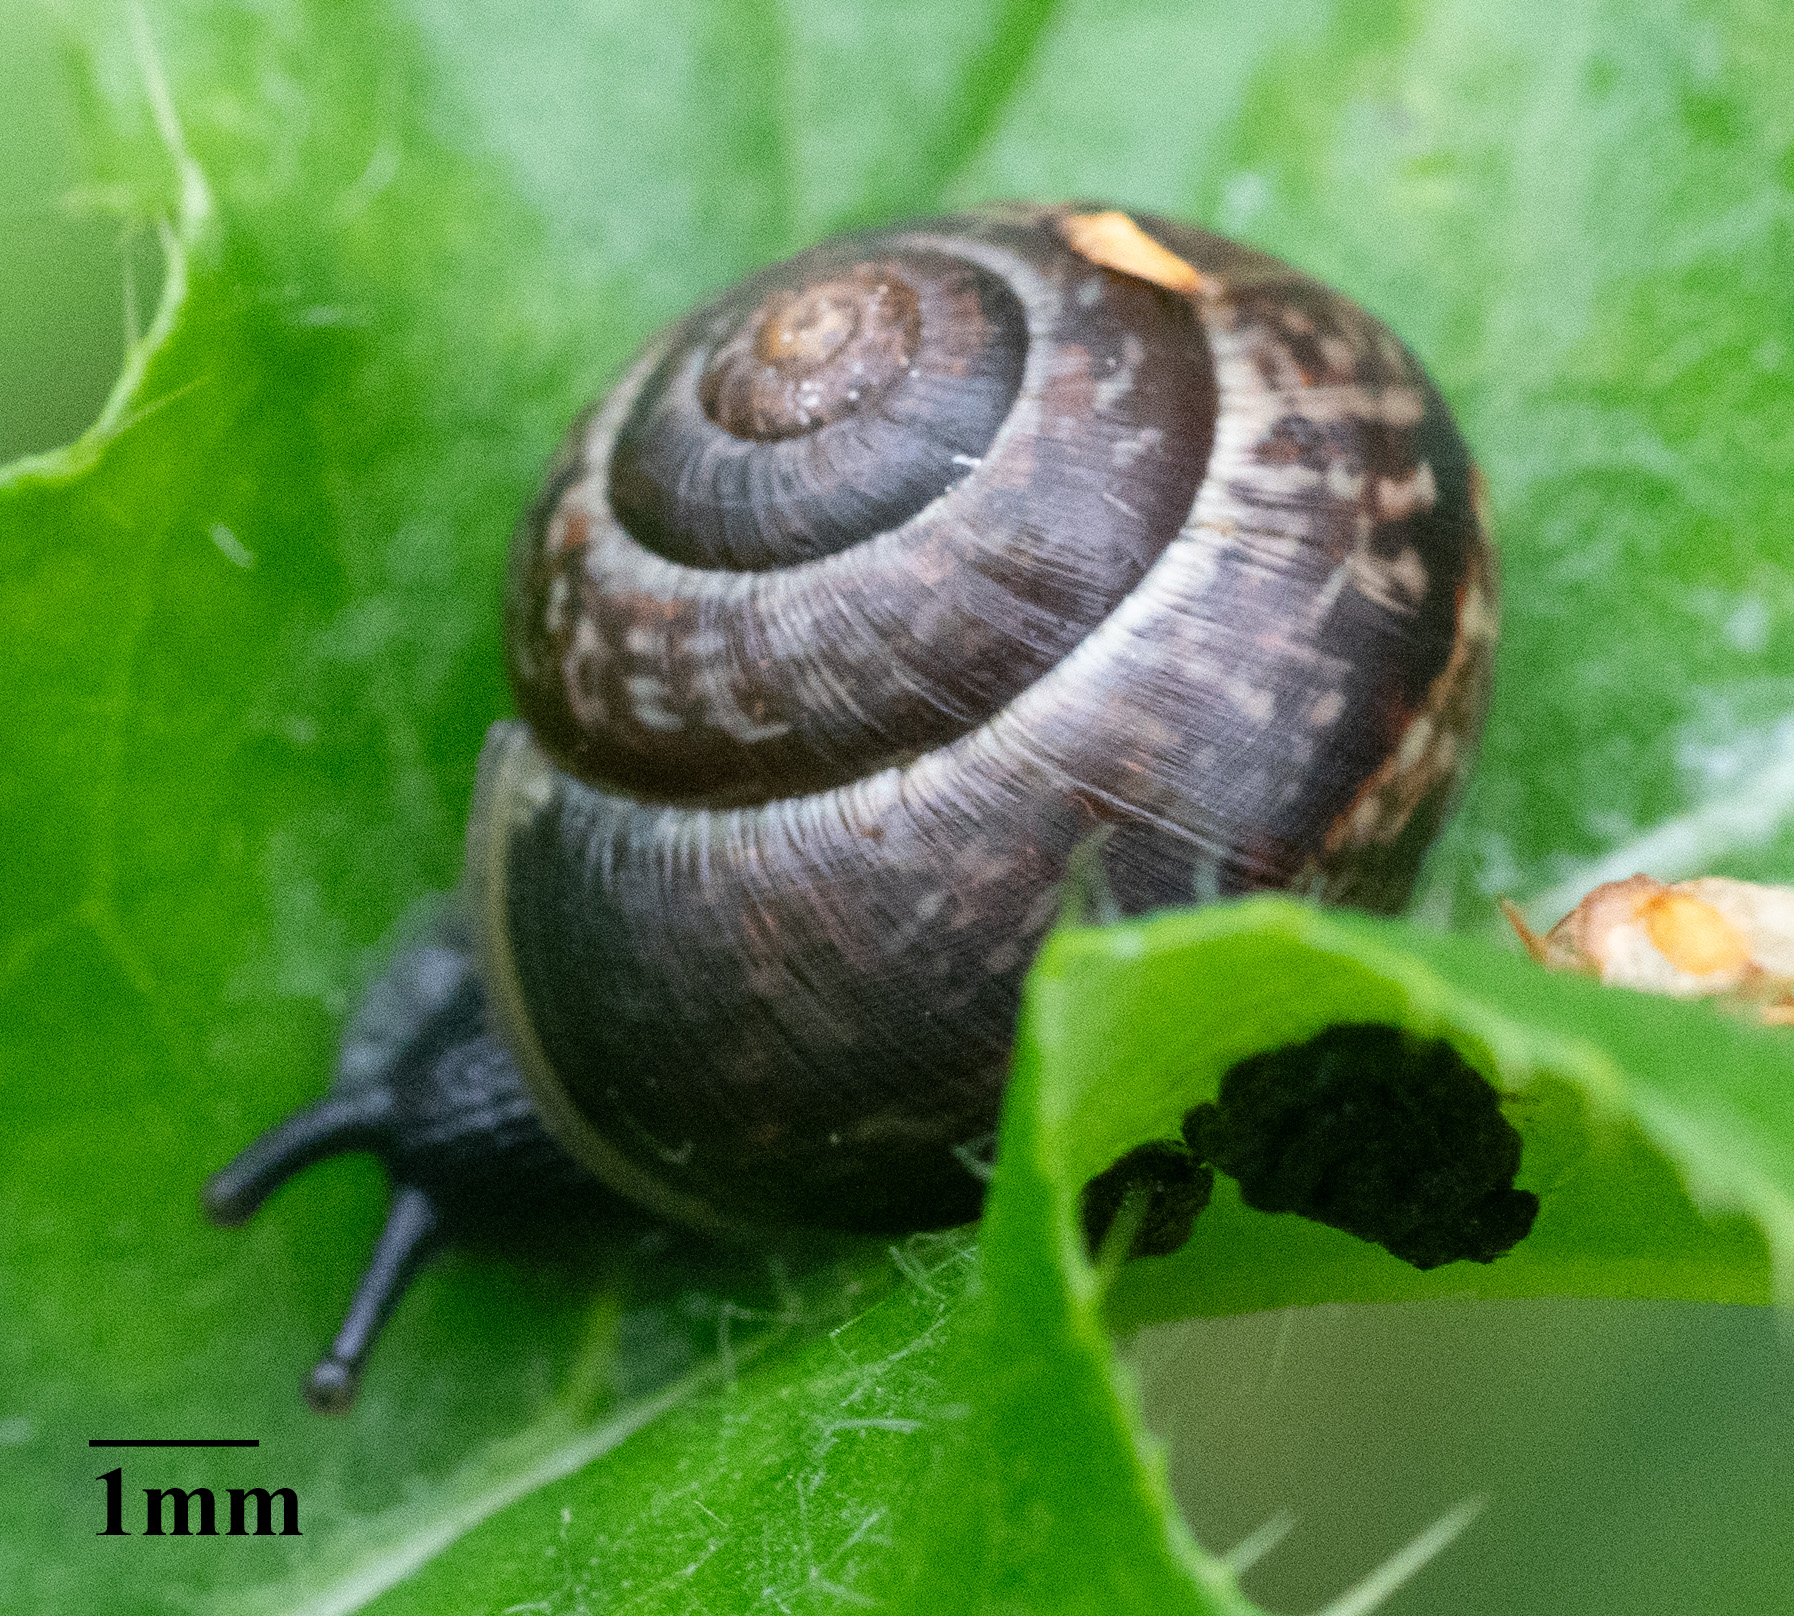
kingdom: Animalia
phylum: Mollusca
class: Gastropoda
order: Stylommatophora
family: Helicidae
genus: Arianta
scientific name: Arianta arbustorum
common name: Copse snail
